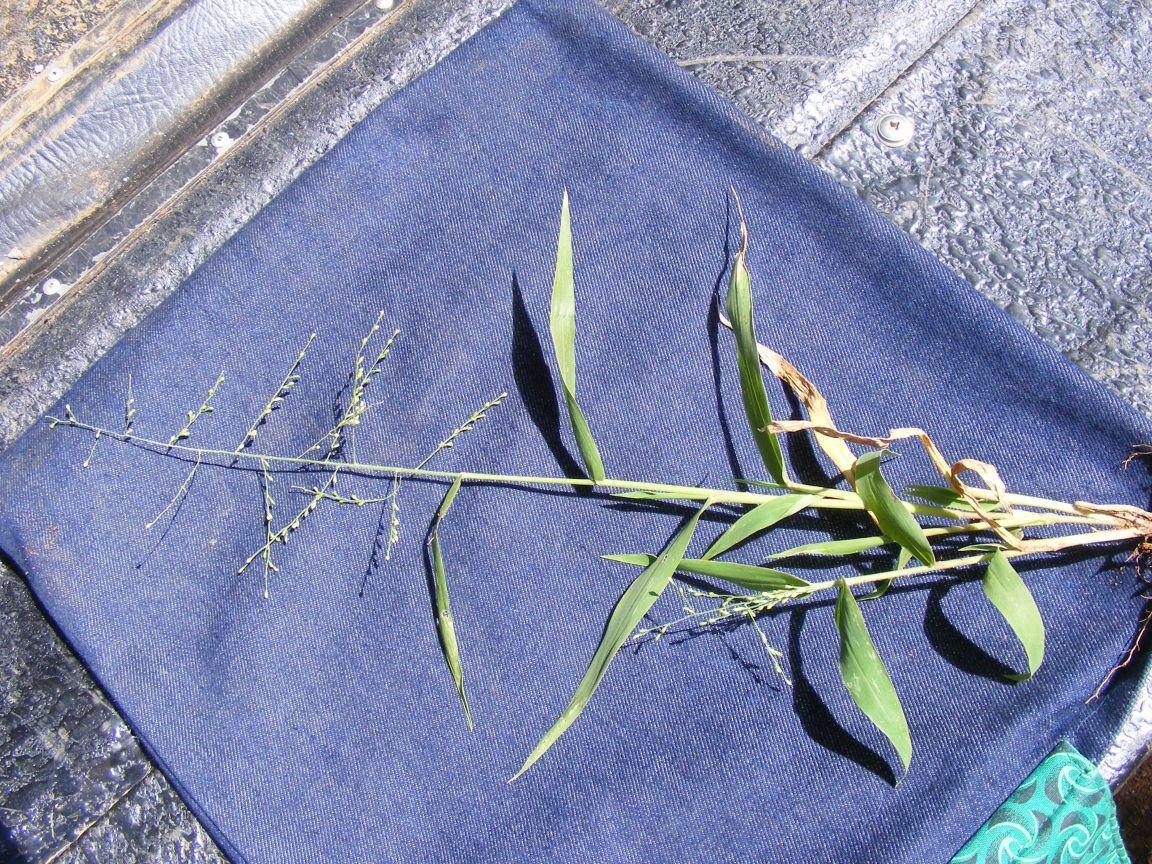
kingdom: Plantae
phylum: Tracheophyta
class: Liliopsida
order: Poales
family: Poaceae
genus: Urochloa
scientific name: Urochloa deflexa
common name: Guinea millet
